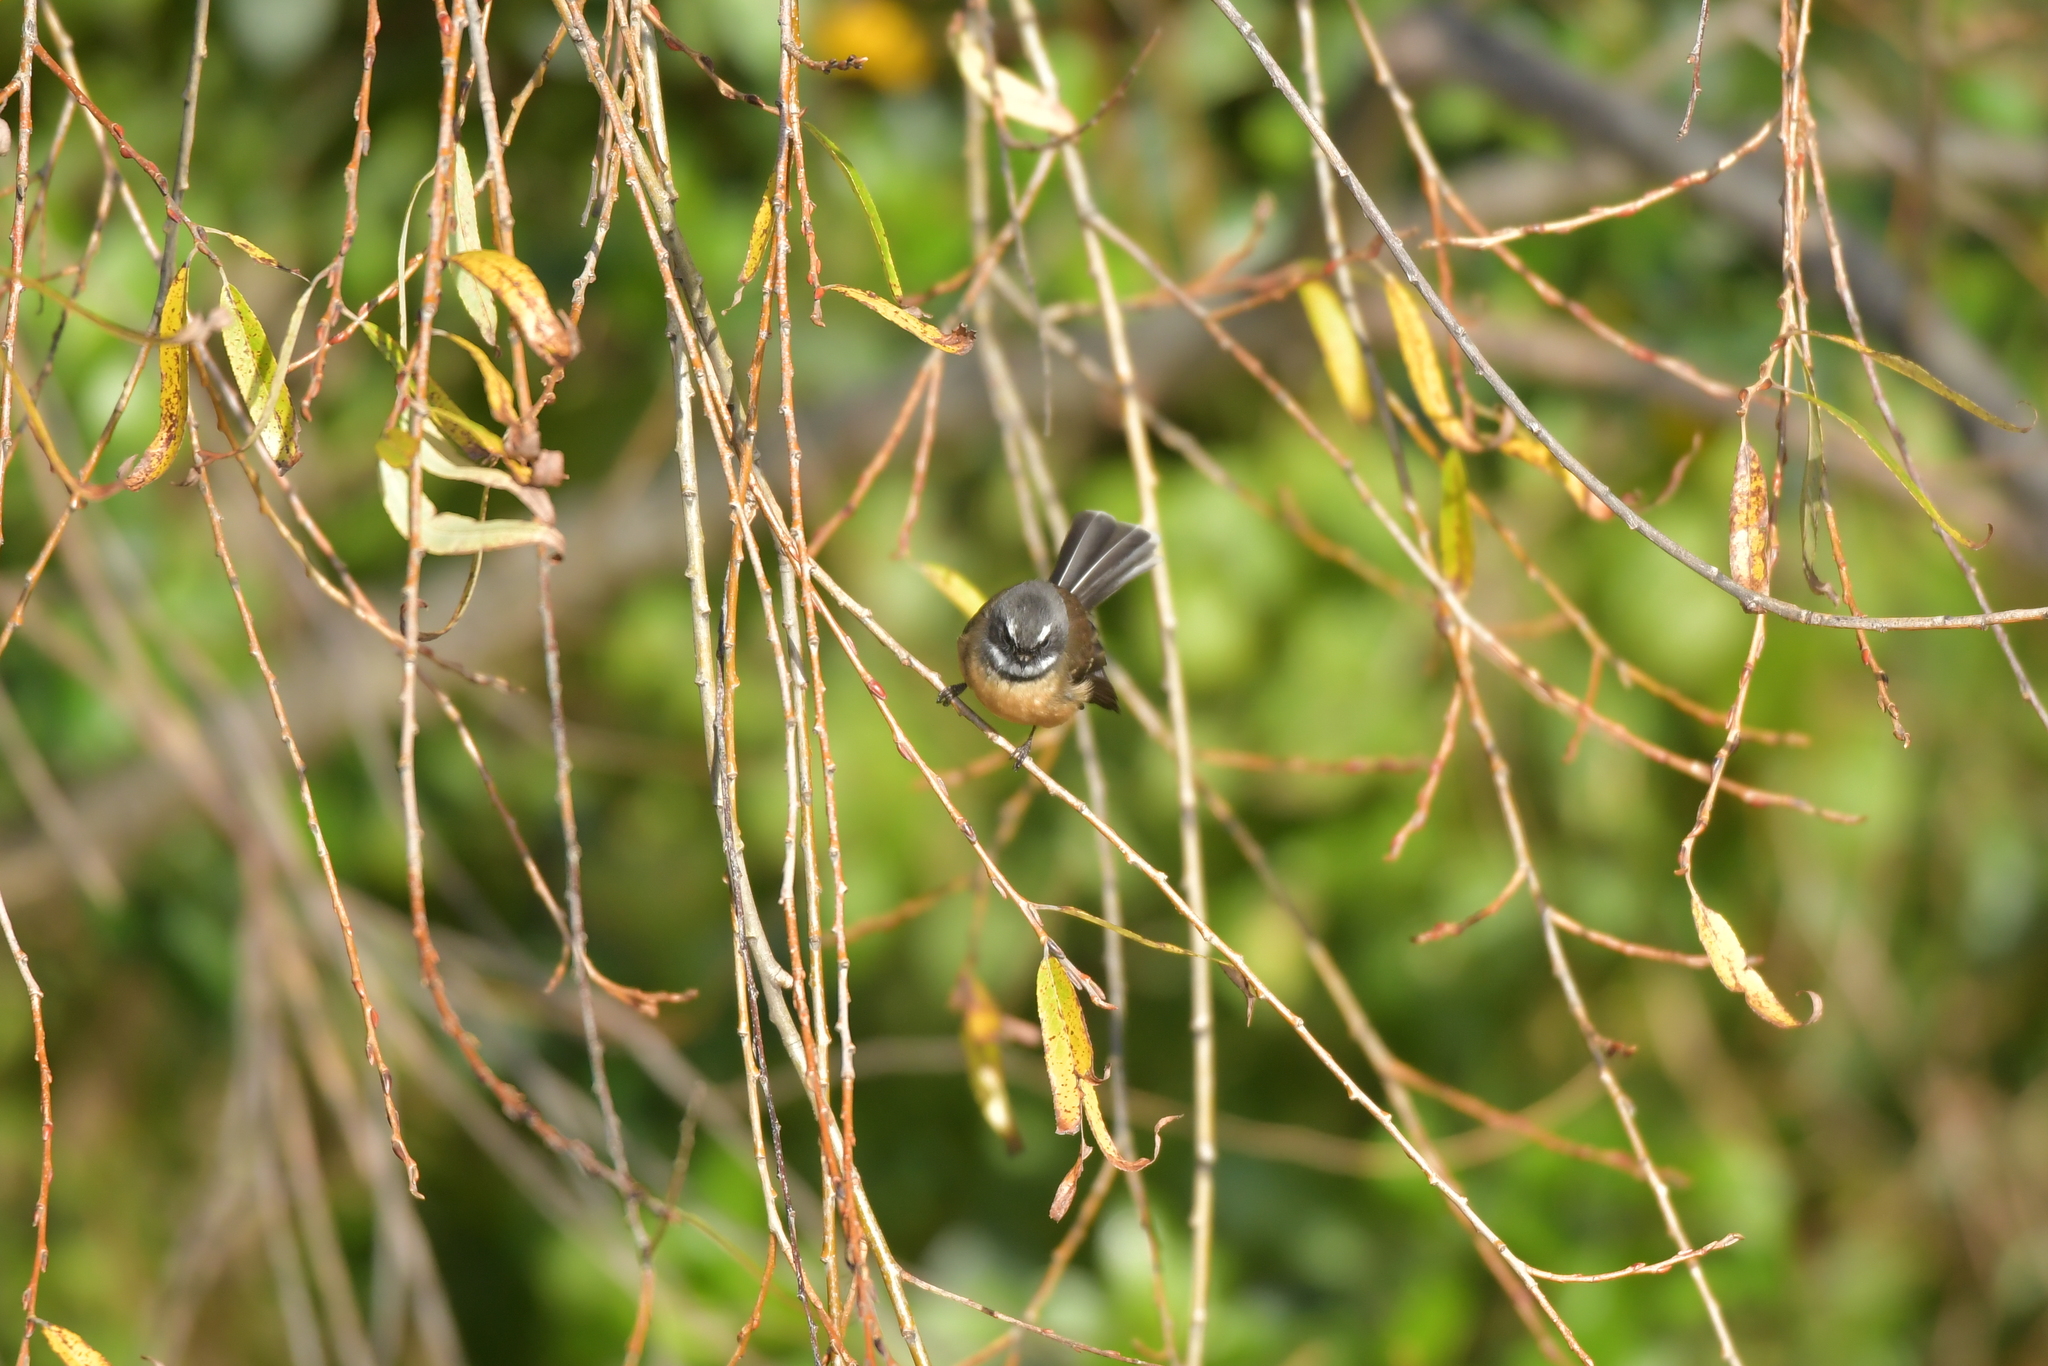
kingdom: Animalia
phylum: Chordata
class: Aves
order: Passeriformes
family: Rhipiduridae
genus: Rhipidura
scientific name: Rhipidura fuliginosa
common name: New zealand fantail
